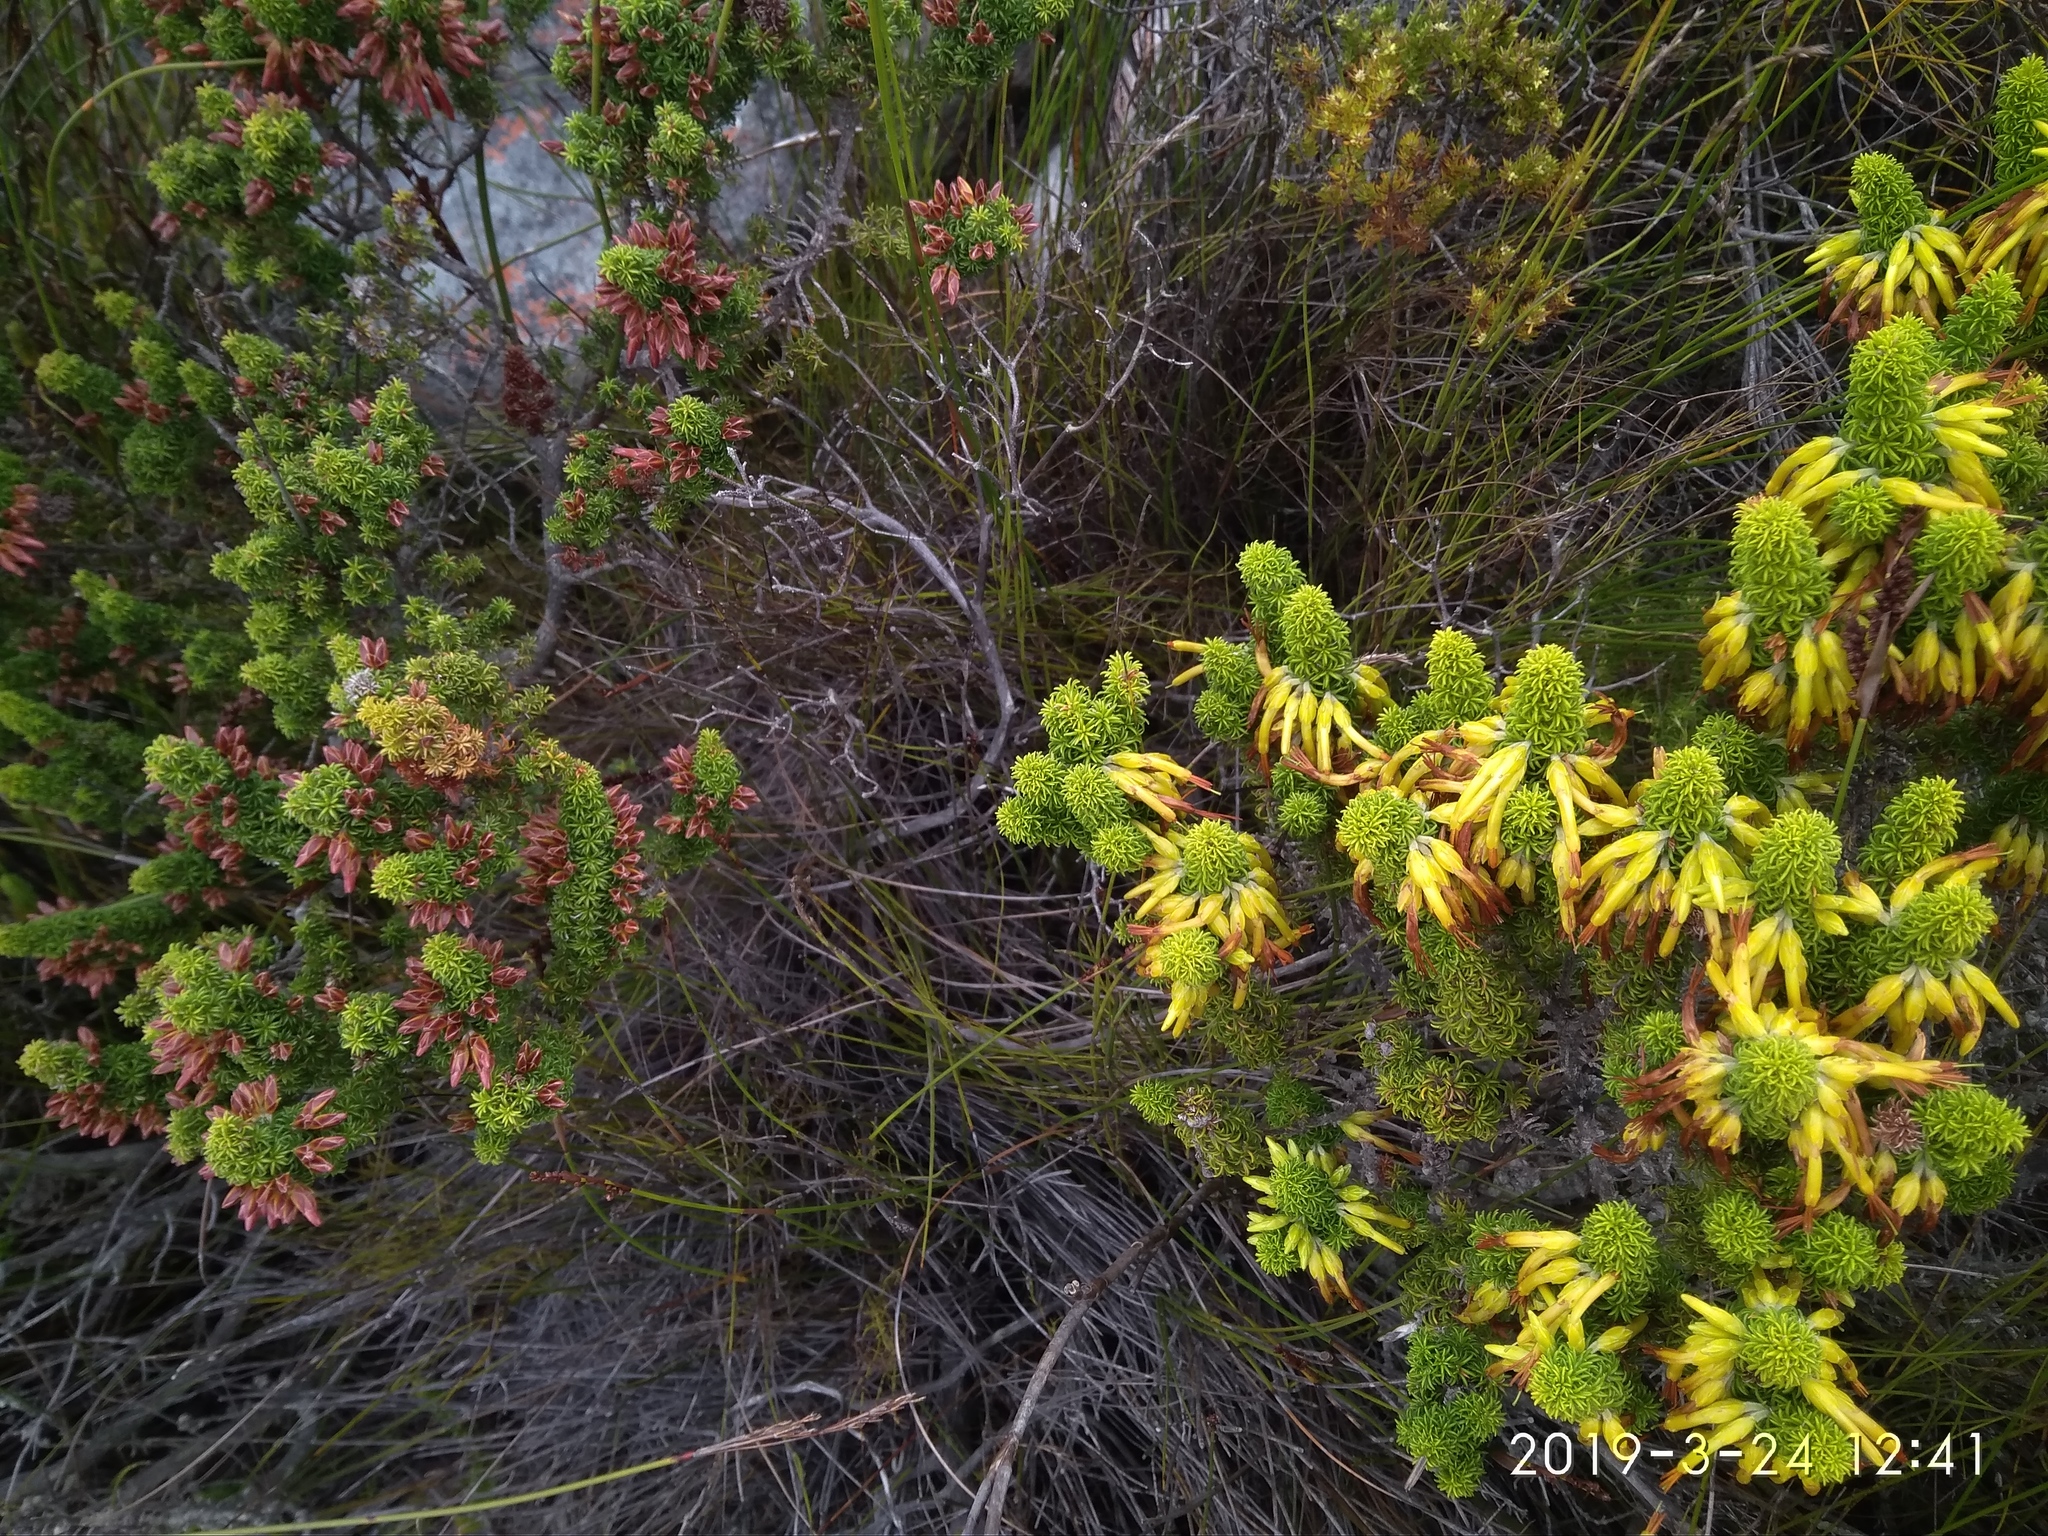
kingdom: Plantae
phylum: Tracheophyta
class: Magnoliopsida
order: Ericales
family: Ericaceae
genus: Erica
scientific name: Erica coccinea
